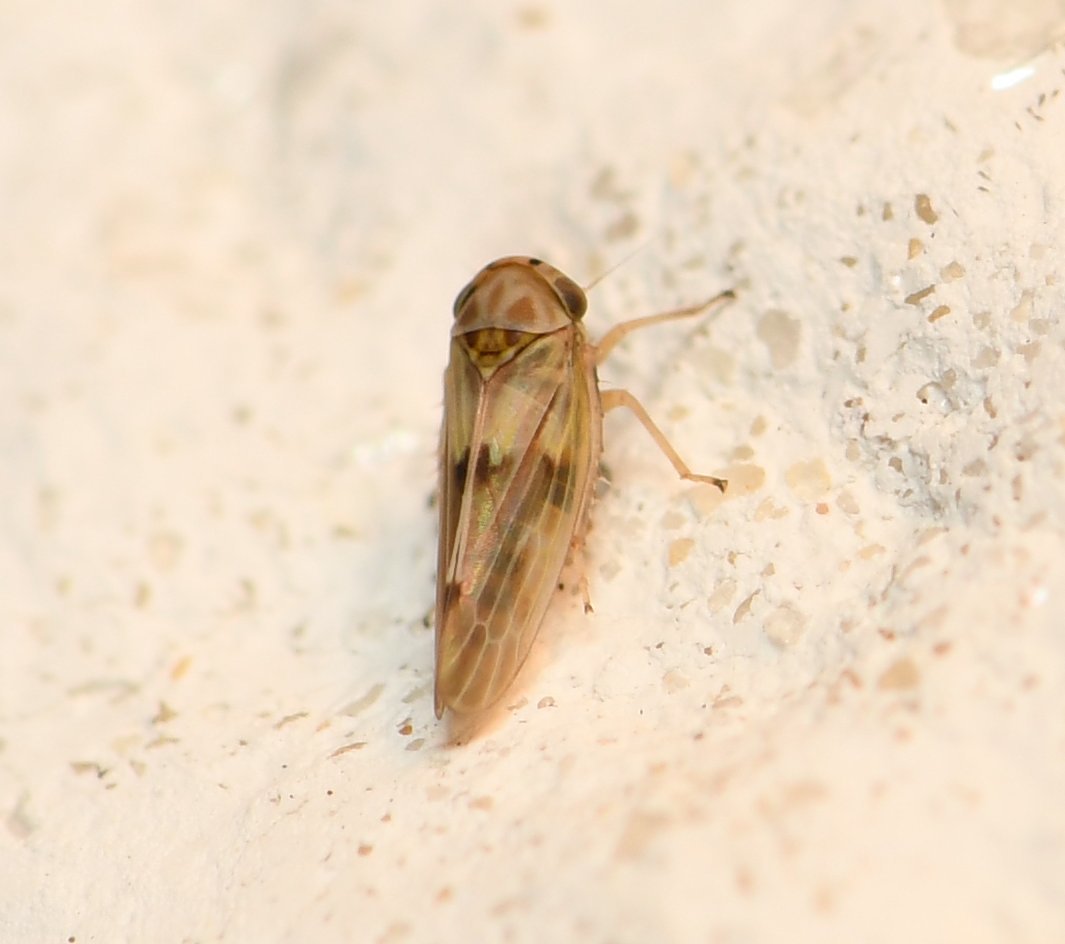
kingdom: Animalia
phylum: Arthropoda
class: Insecta
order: Hemiptera
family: Cicadellidae
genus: Agallia
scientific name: Agallia albidula
